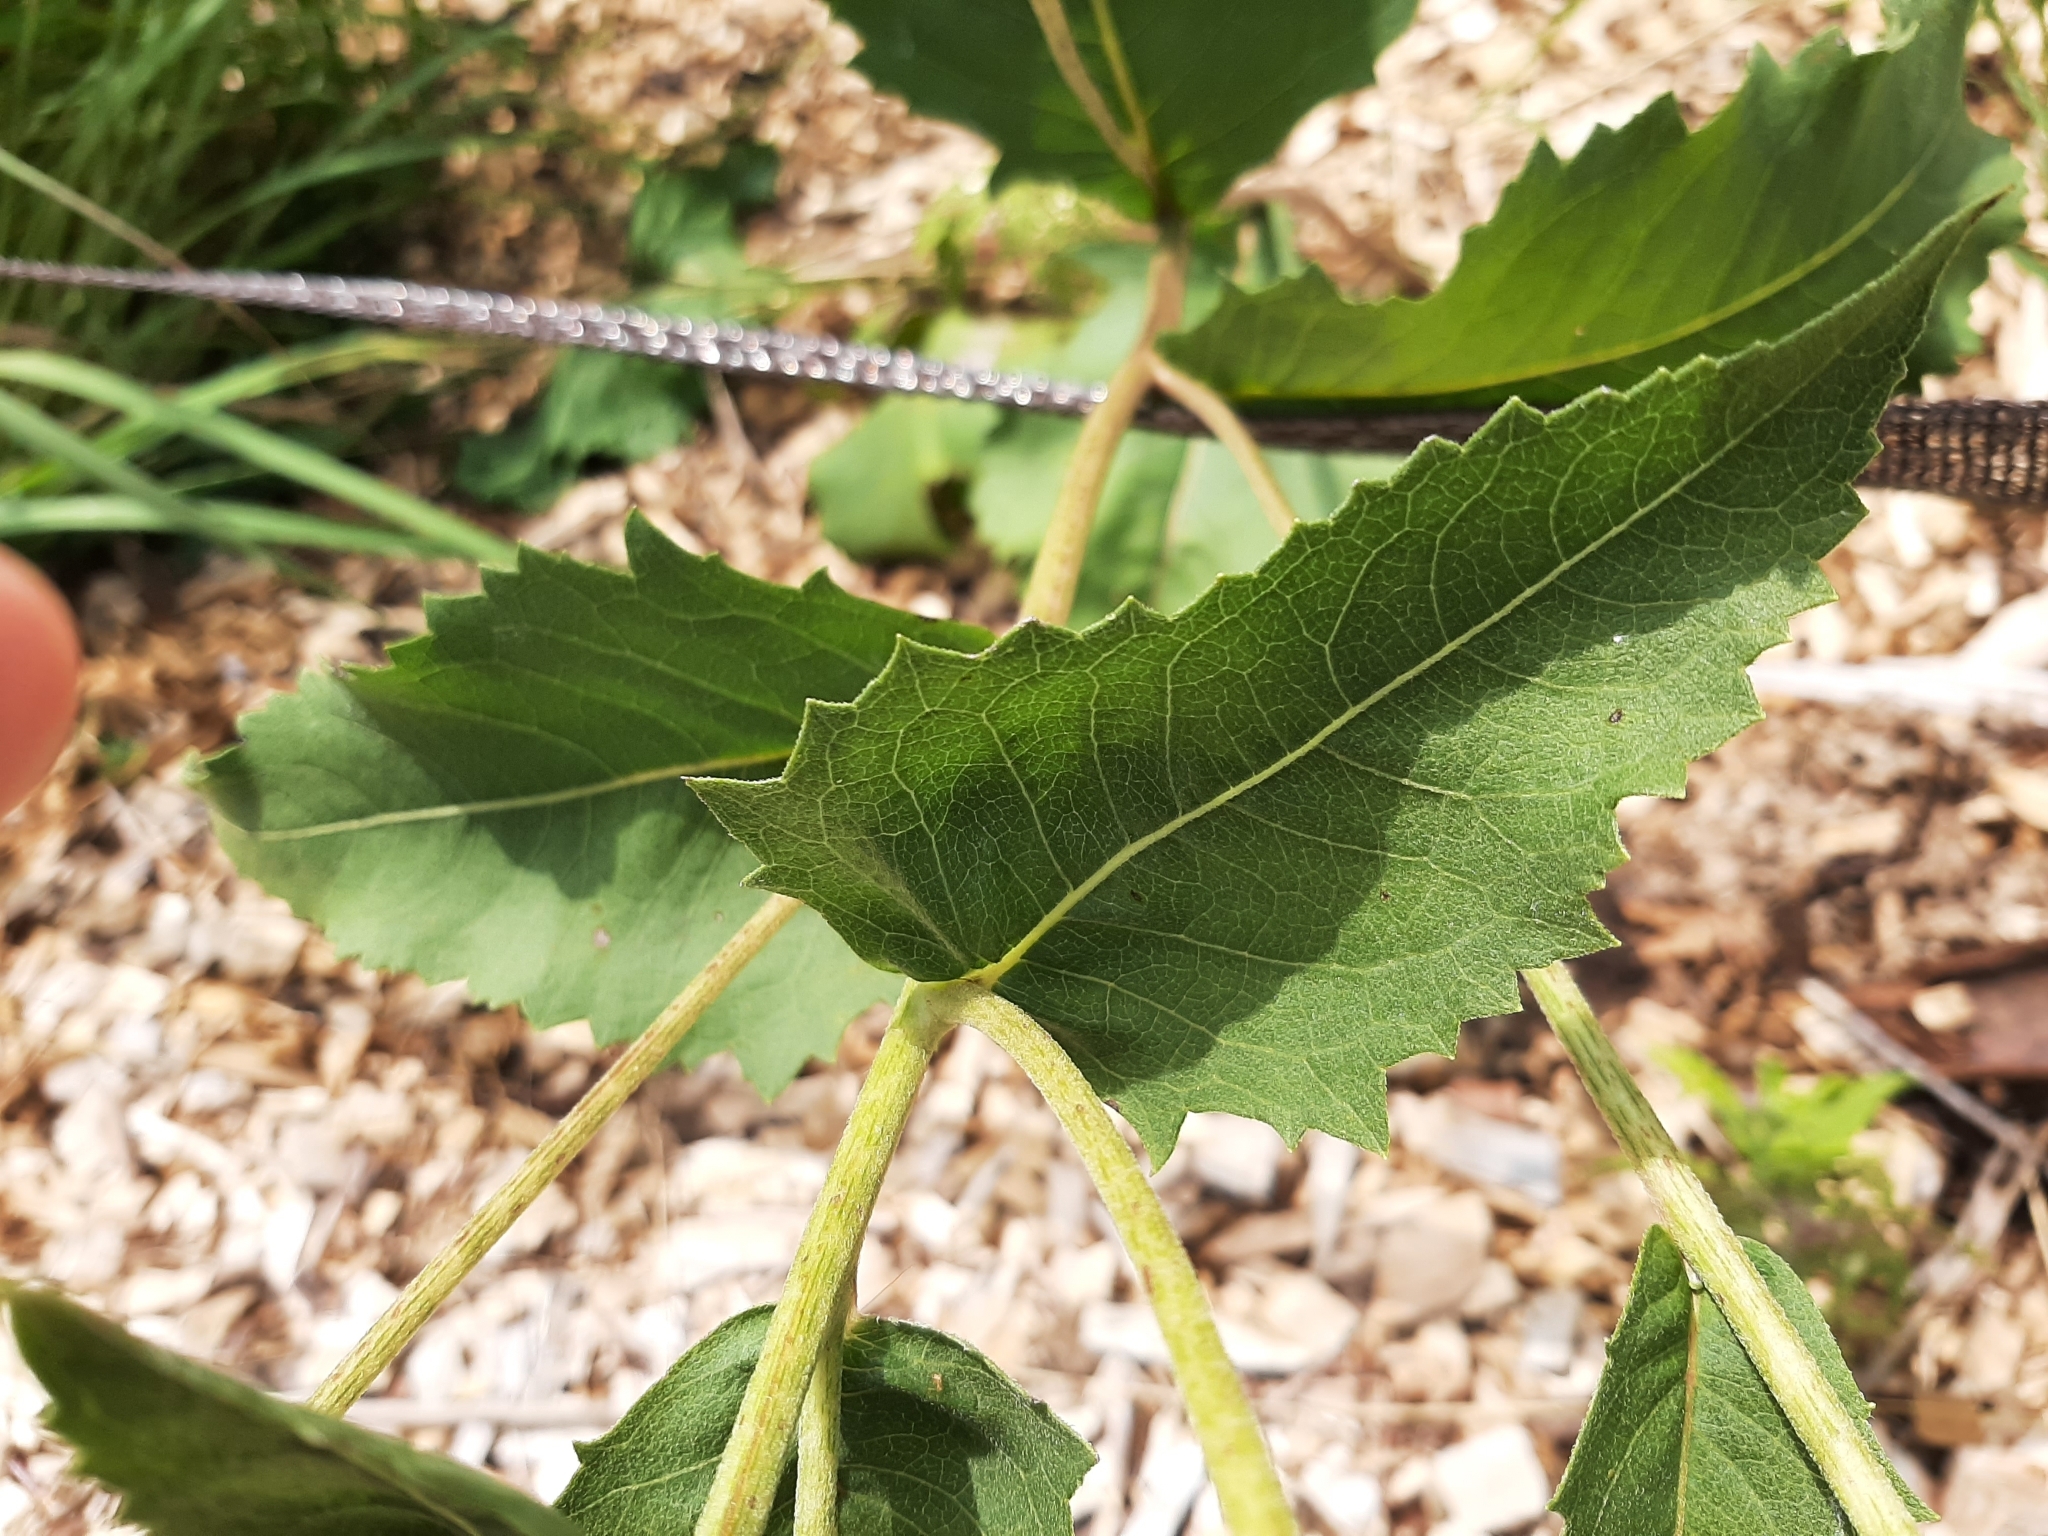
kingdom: Plantae
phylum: Tracheophyta
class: Magnoliopsida
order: Asterales
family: Asteraceae
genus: Parthenium
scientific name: Parthenium integrifolium
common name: American feverfew
